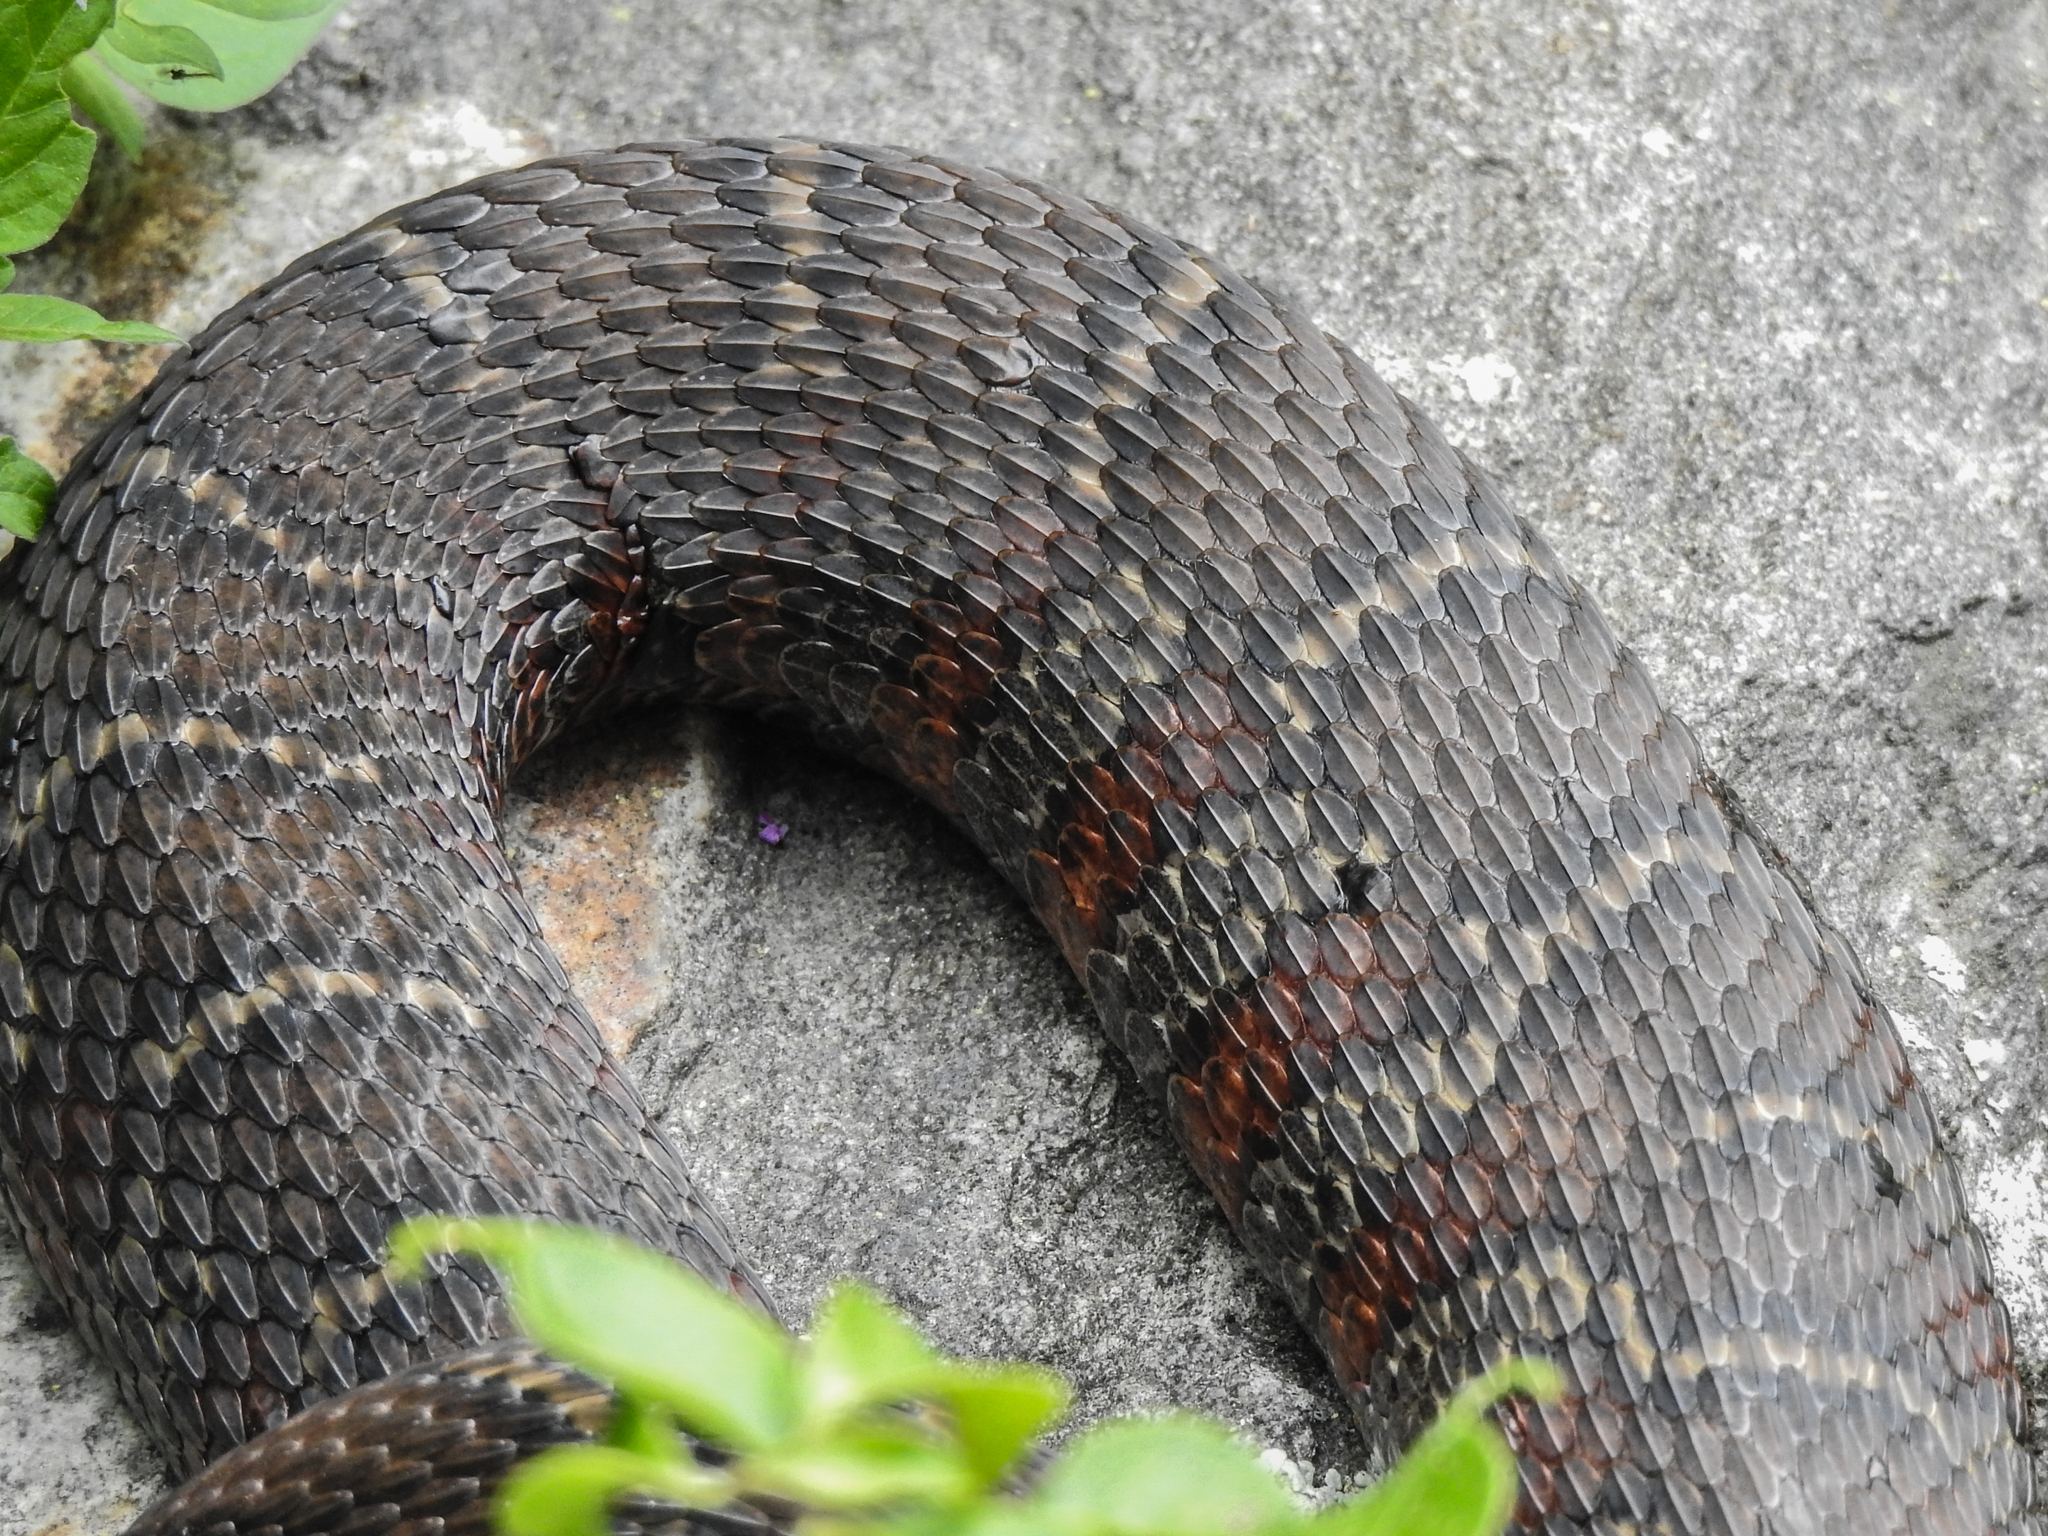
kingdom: Animalia
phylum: Chordata
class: Squamata
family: Colubridae
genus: Nerodia
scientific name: Nerodia sipedon
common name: Northern water snake
